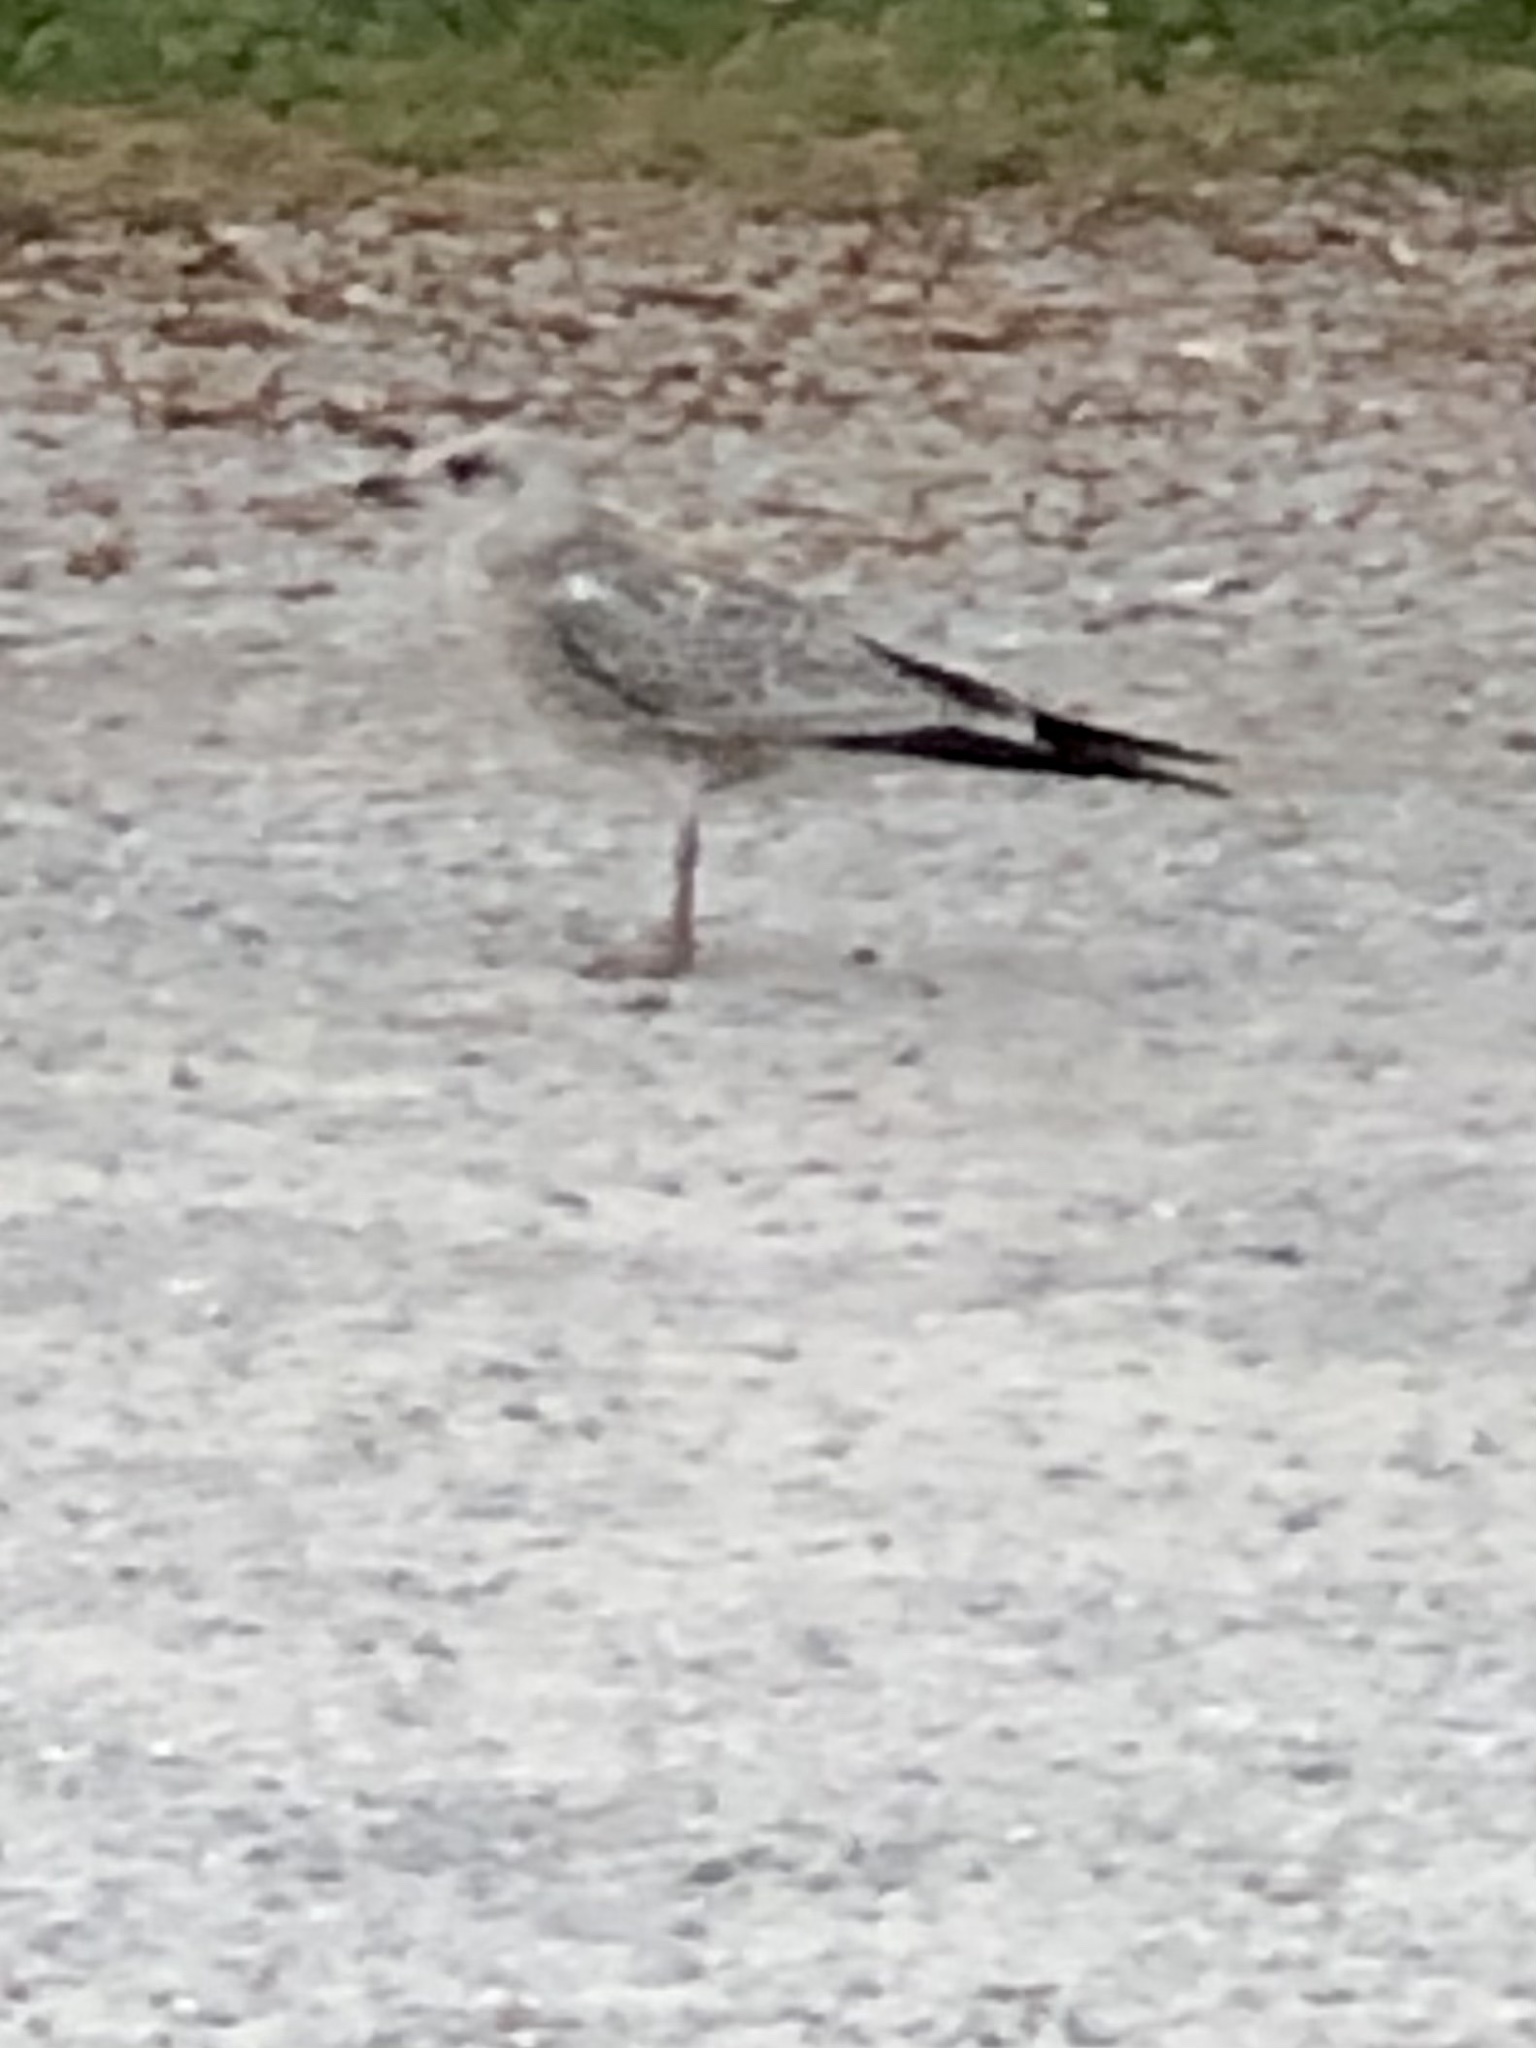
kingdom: Animalia
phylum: Chordata
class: Aves
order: Charadriiformes
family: Laridae
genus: Larus
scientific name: Larus delawarensis
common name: Ring-billed gull
